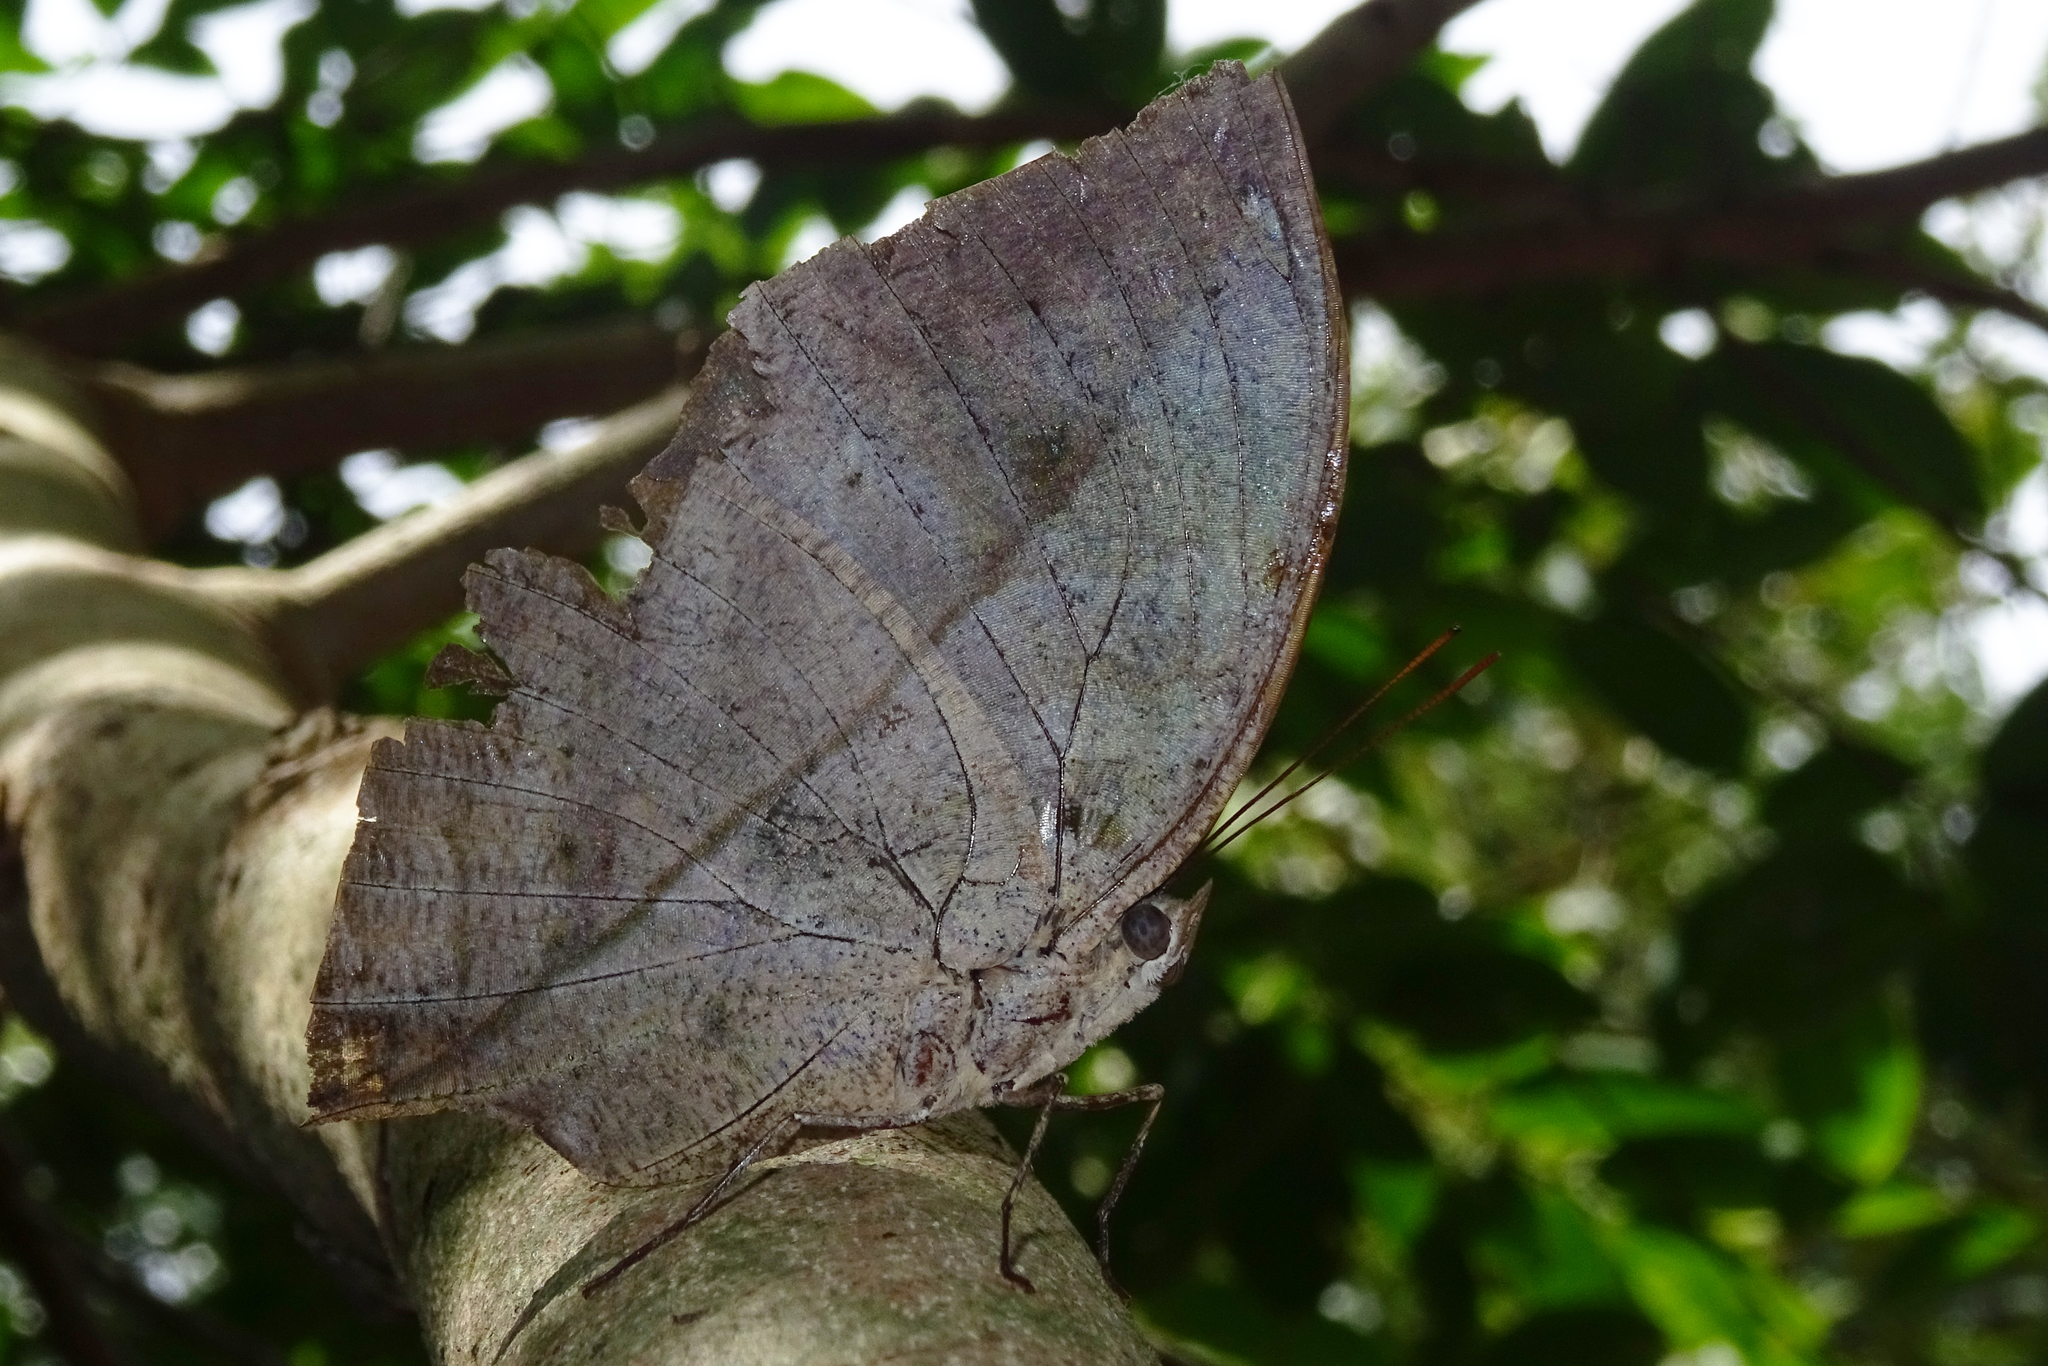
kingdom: Animalia
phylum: Arthropoda
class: Insecta
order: Lepidoptera
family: Nymphalidae
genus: Kallima
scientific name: Kallima horsfieldii
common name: Sahyadri blue oakleaf
